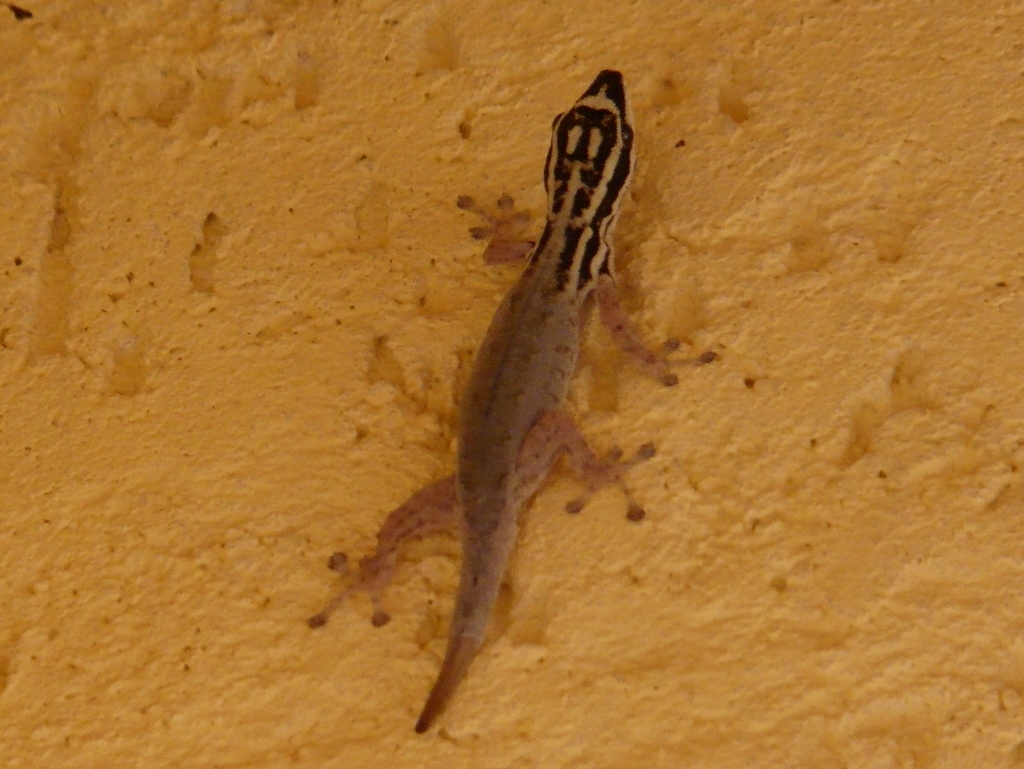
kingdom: Animalia
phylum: Chordata
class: Squamata
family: Gekkonidae
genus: Lygodactylus
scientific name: Lygodactylus mombasicus
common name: White-headed dwarf gecko
